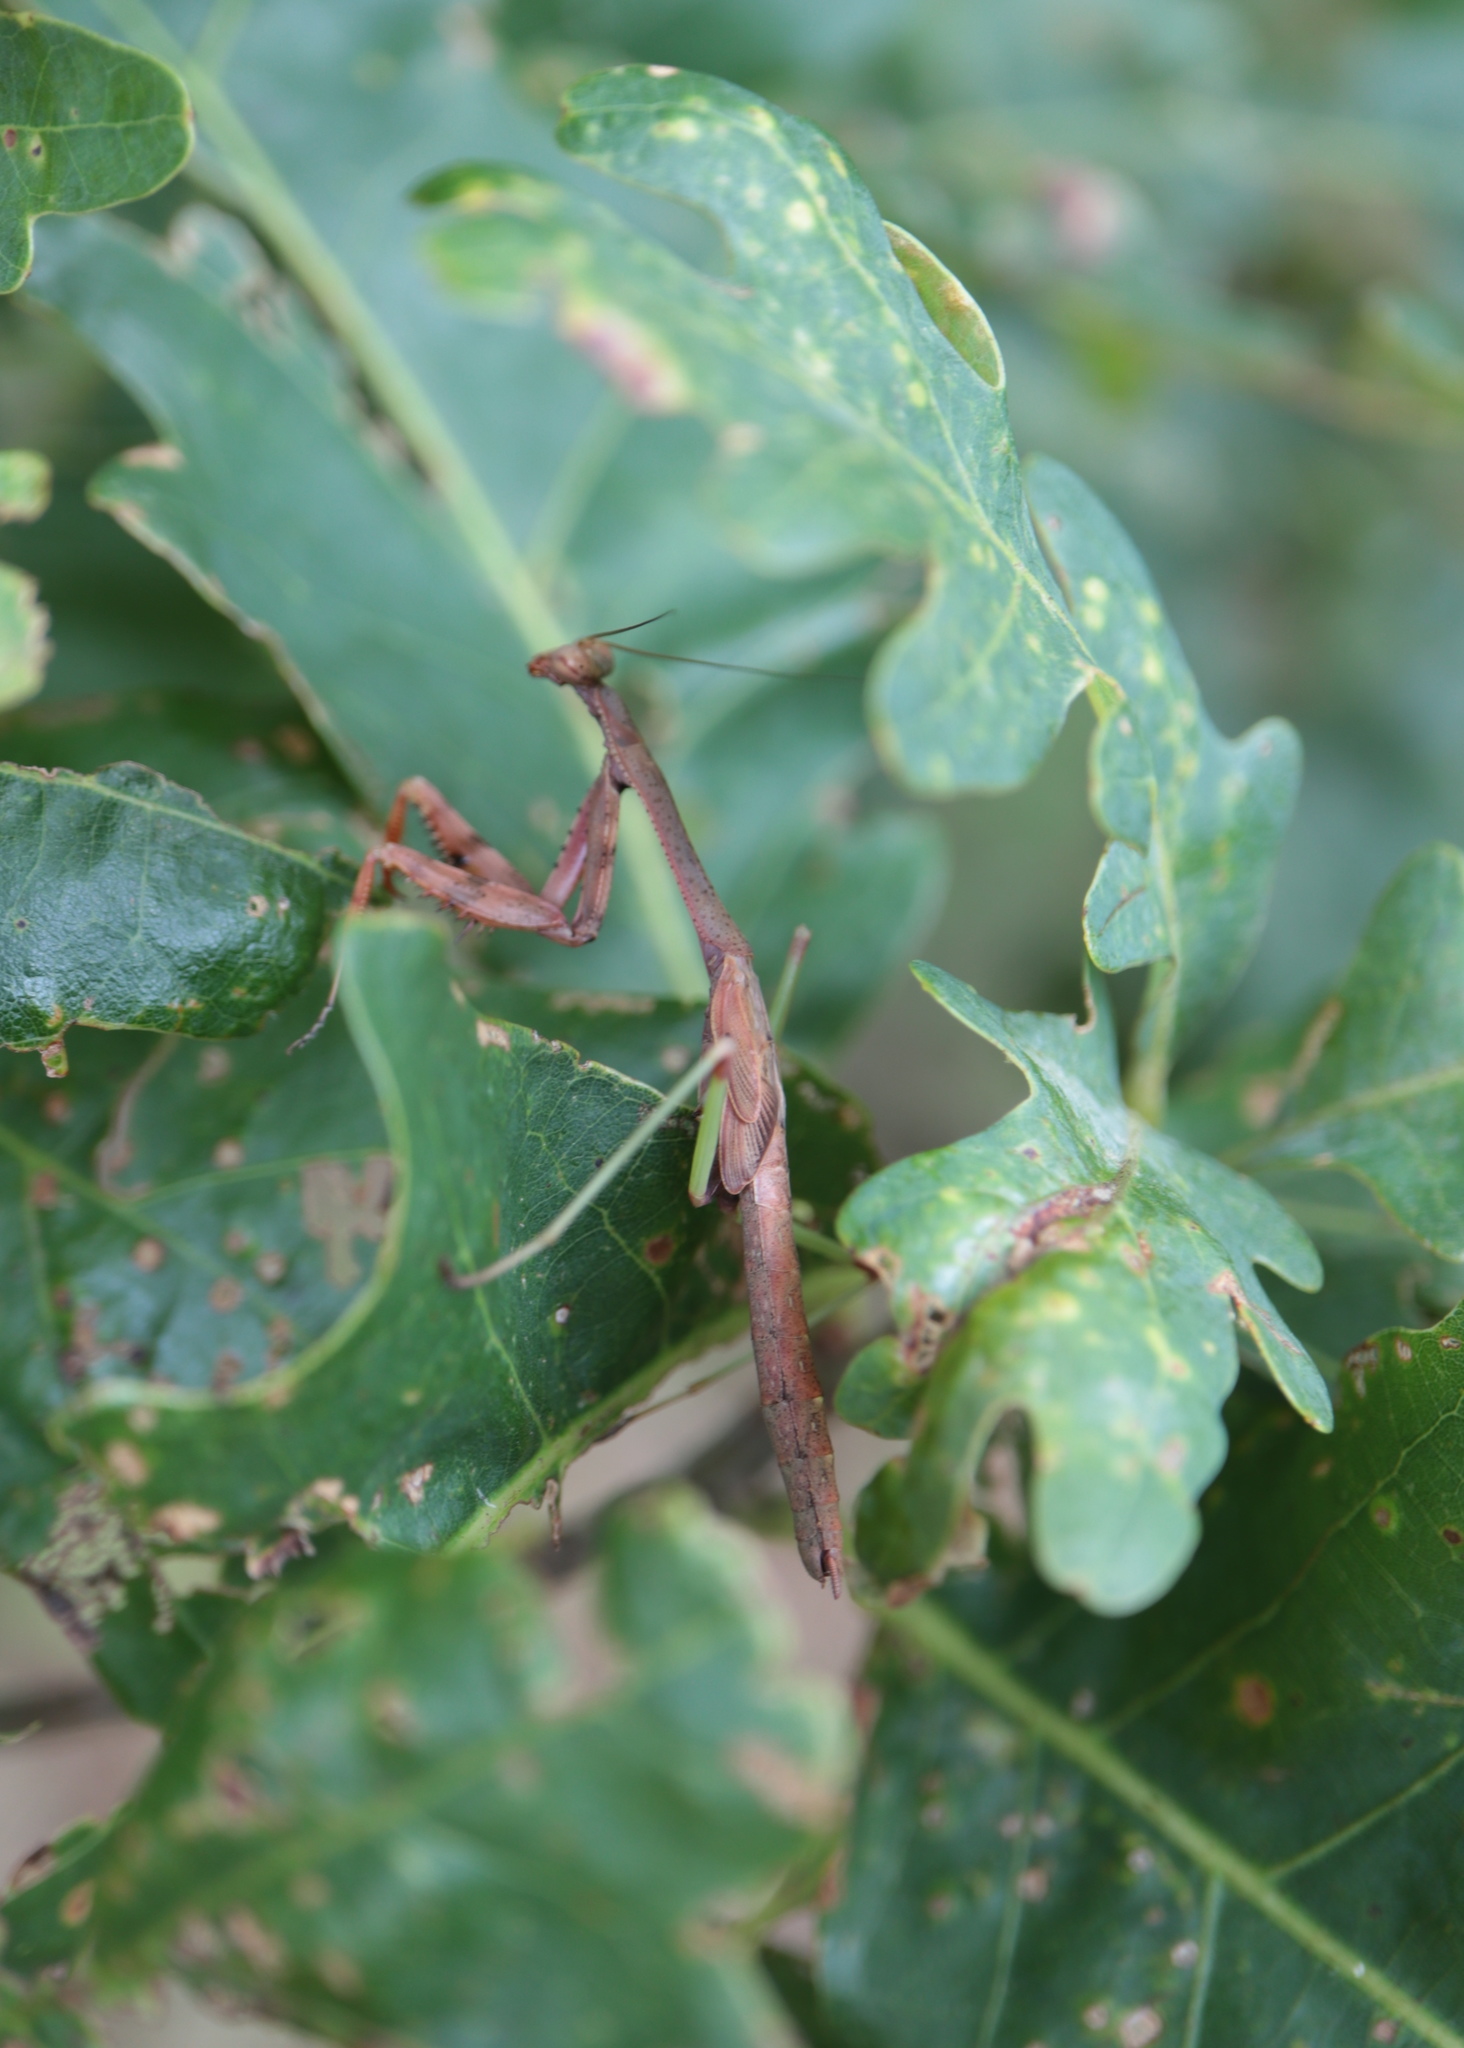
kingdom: Animalia
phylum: Arthropoda
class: Insecta
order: Mantodea
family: Mantidae
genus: Stagmomantis
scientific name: Stagmomantis carolina
